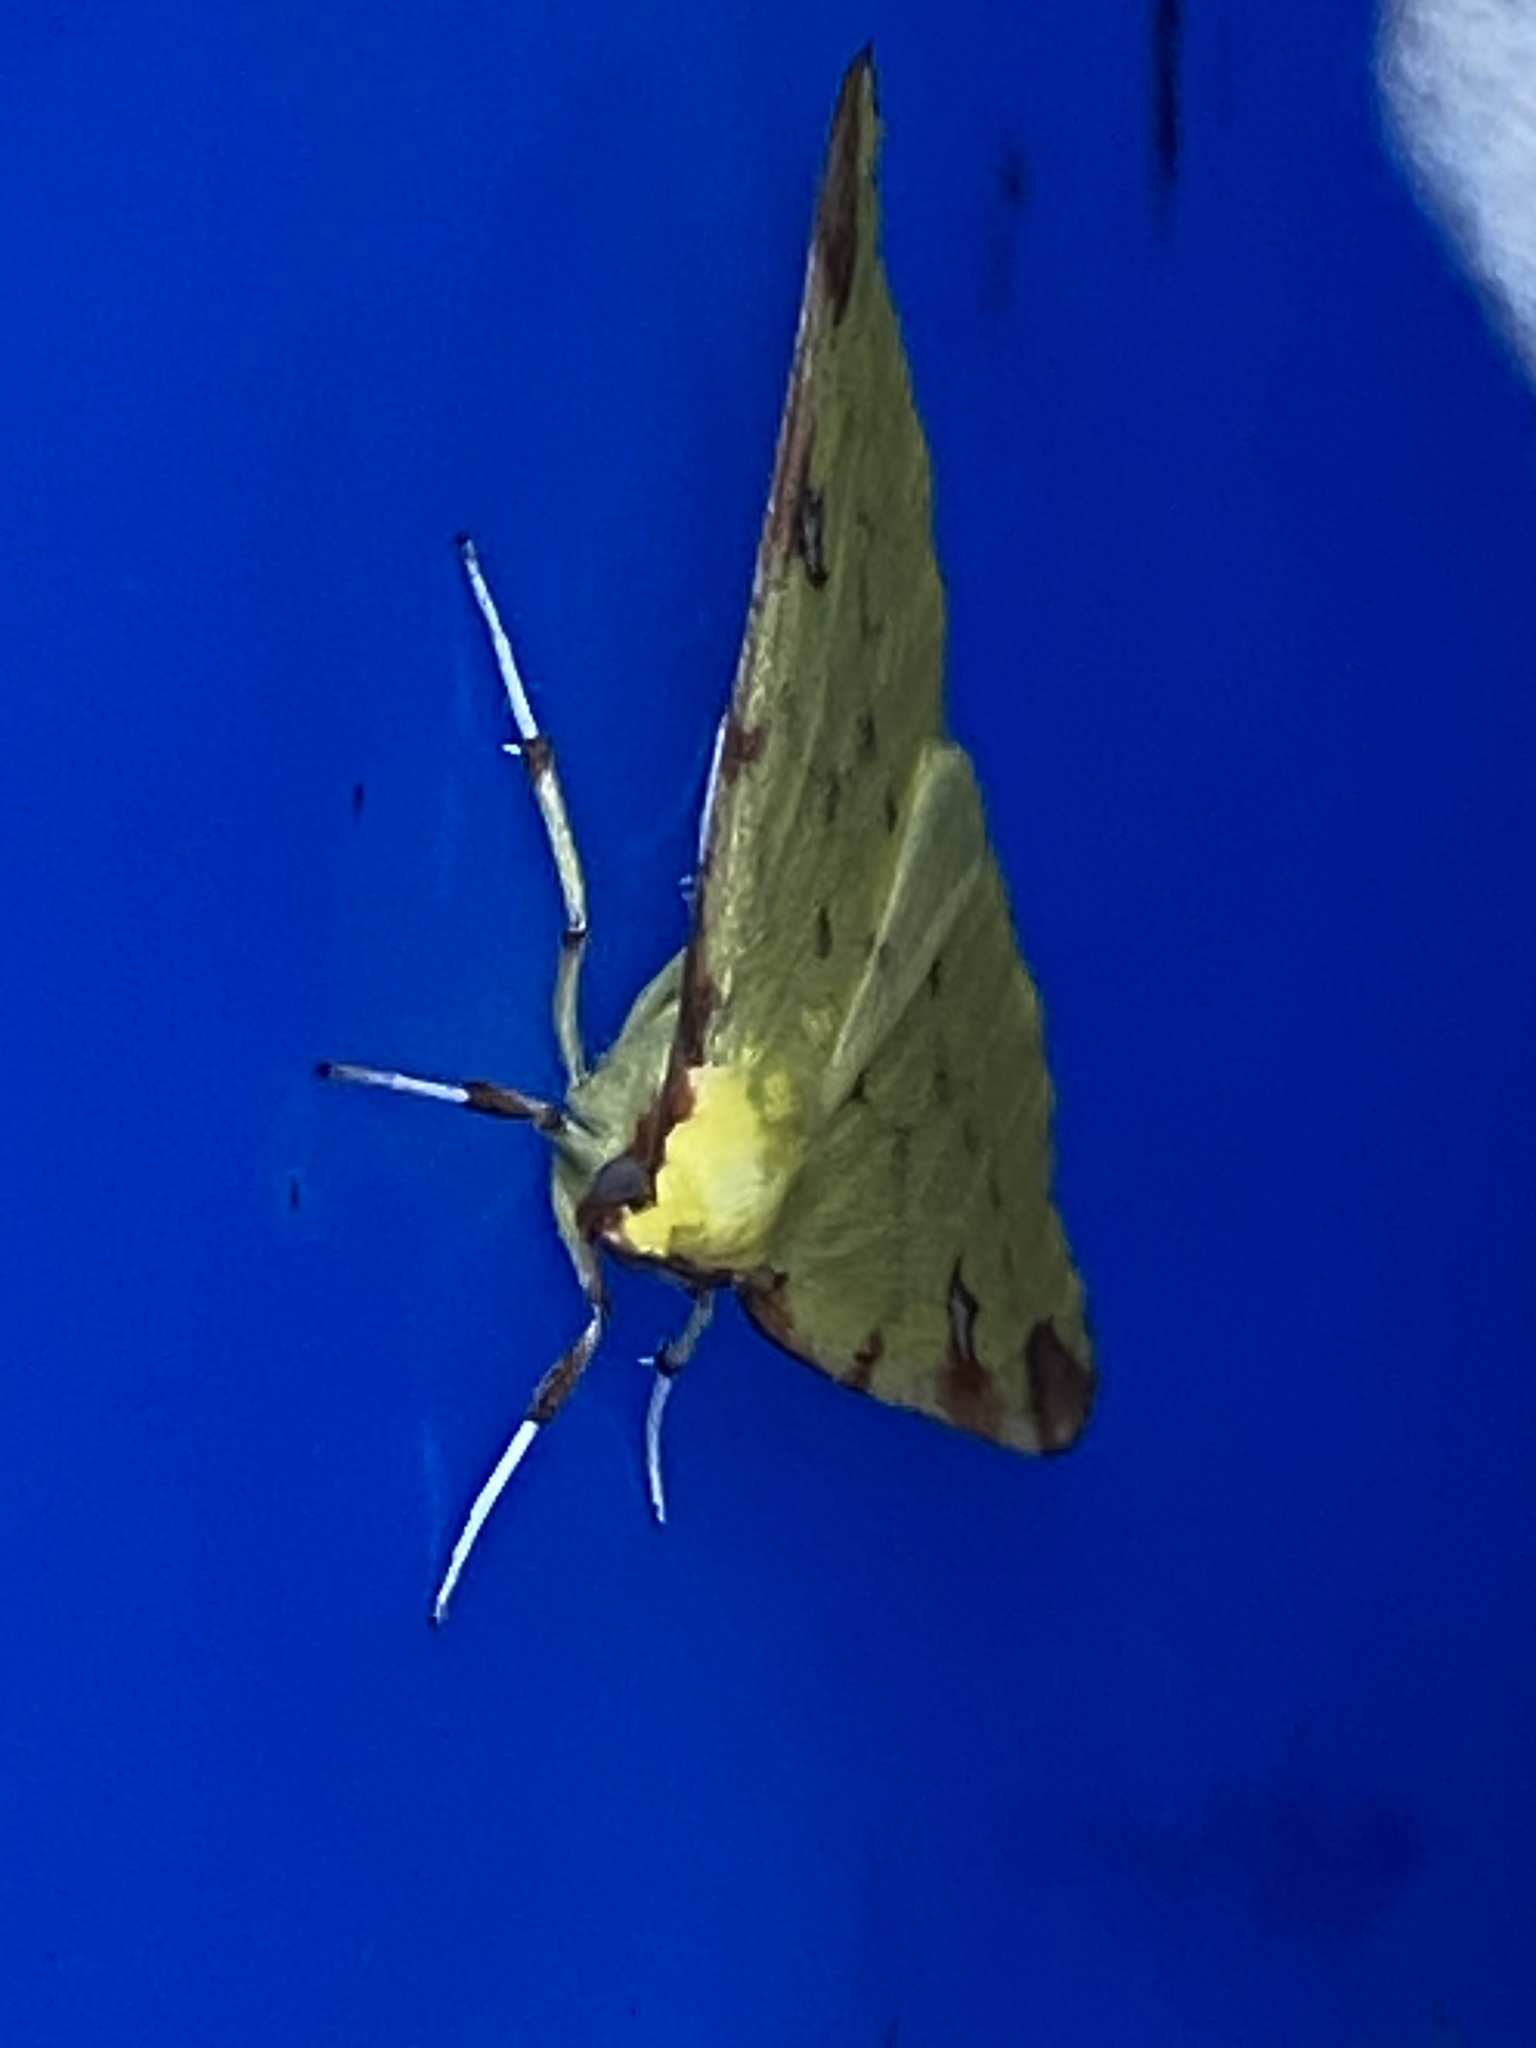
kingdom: Animalia
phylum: Arthropoda
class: Insecta
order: Lepidoptera
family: Geometridae
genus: Opisthograptis
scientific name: Opisthograptis luteolata
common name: Brimstone moth
